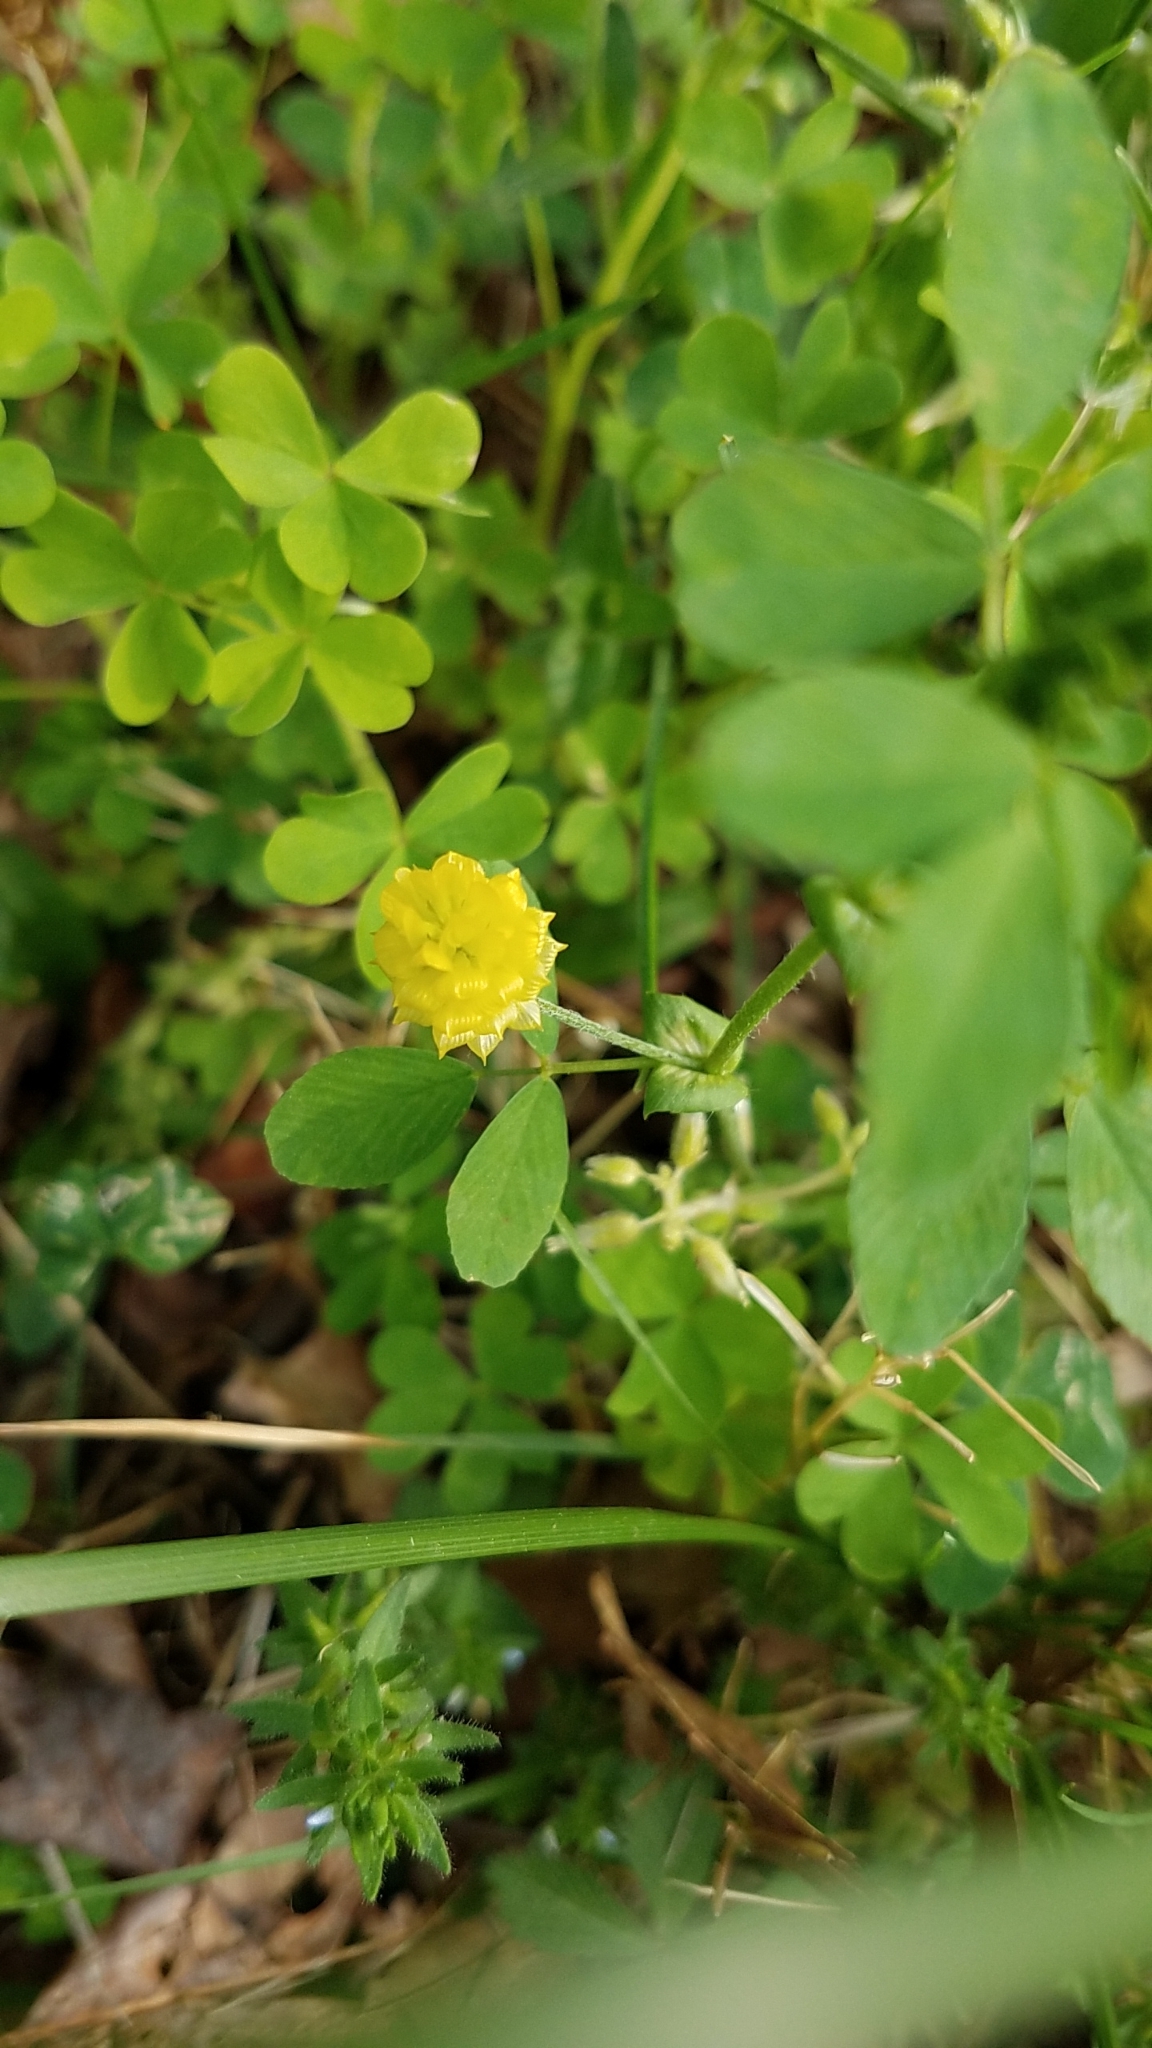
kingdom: Plantae
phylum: Tracheophyta
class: Magnoliopsida
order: Fabales
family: Fabaceae
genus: Trifolium
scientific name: Trifolium campestre
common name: Field clover
